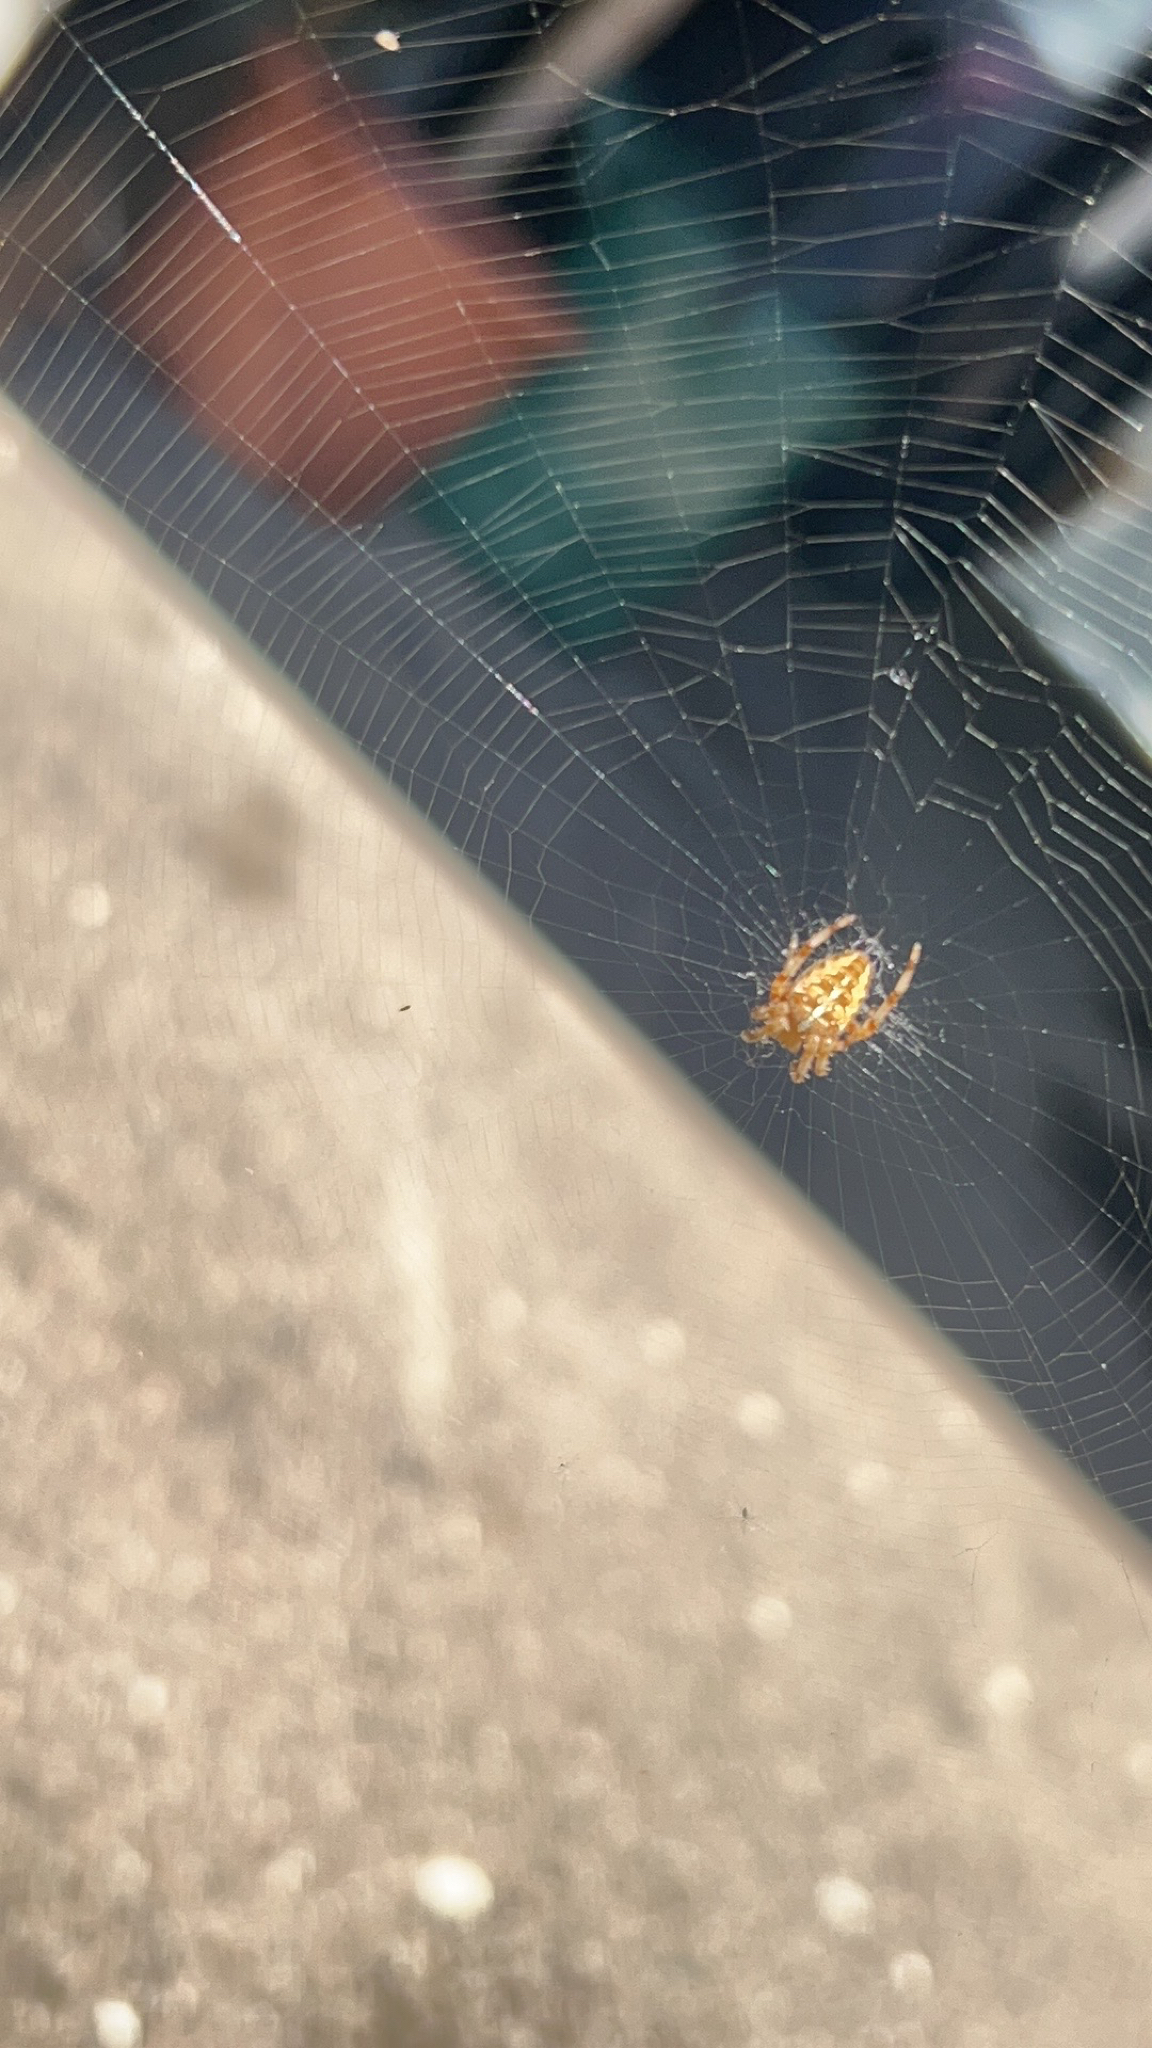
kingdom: Animalia
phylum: Arthropoda
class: Arachnida
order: Araneae
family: Araneidae
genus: Araneus
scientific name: Araneus diadematus
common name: Cross orbweaver
